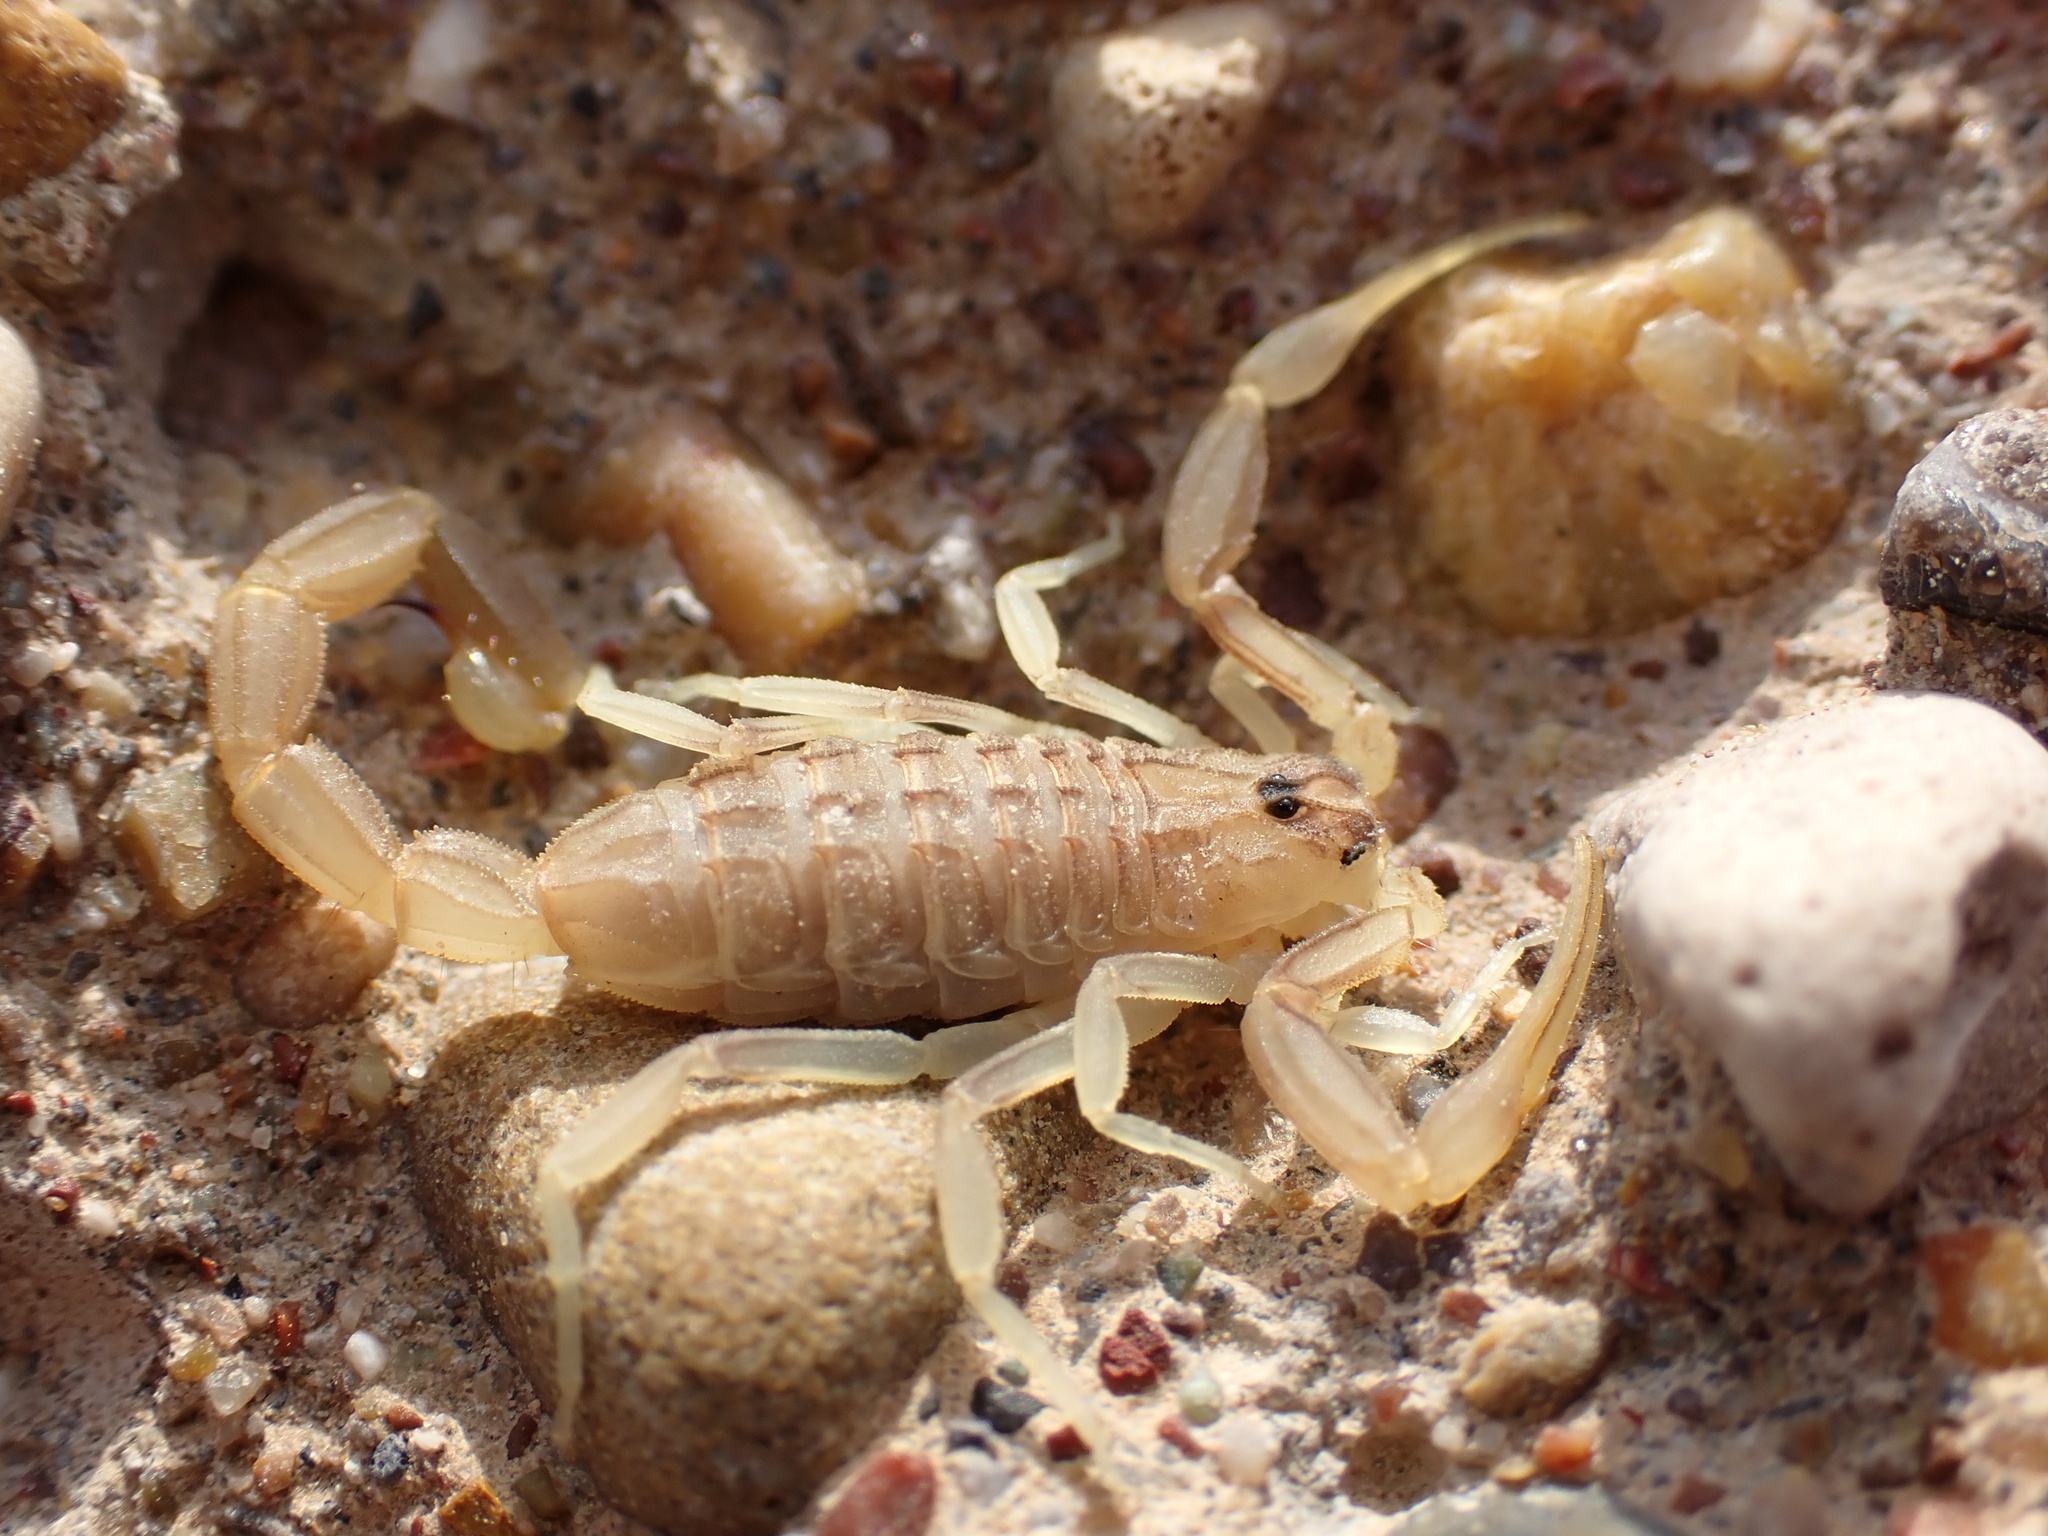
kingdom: Animalia
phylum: Arthropoda
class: Arachnida
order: Scorpiones
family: Buthidae
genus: Compsobuthus
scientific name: Compsobuthus jakesi
